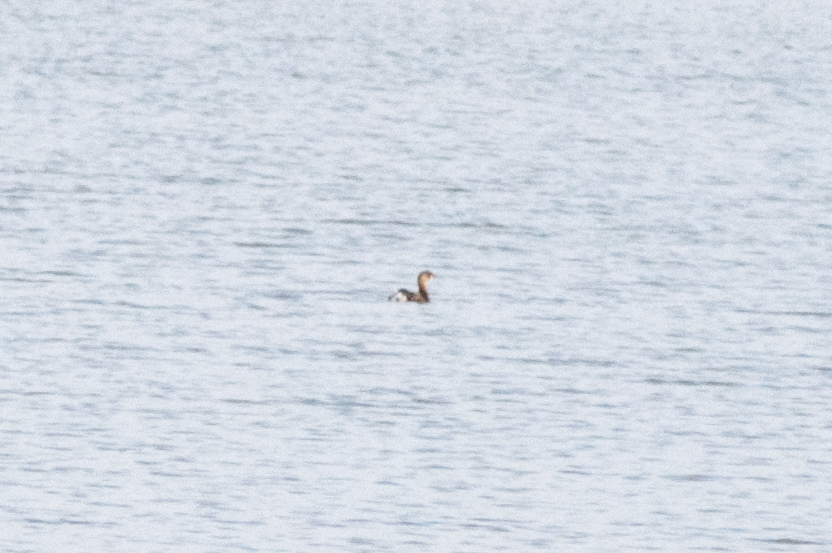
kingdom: Animalia
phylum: Chordata
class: Aves
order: Podicipediformes
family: Podicipedidae
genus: Podilymbus
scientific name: Podilymbus podiceps
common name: Pied-billed grebe
